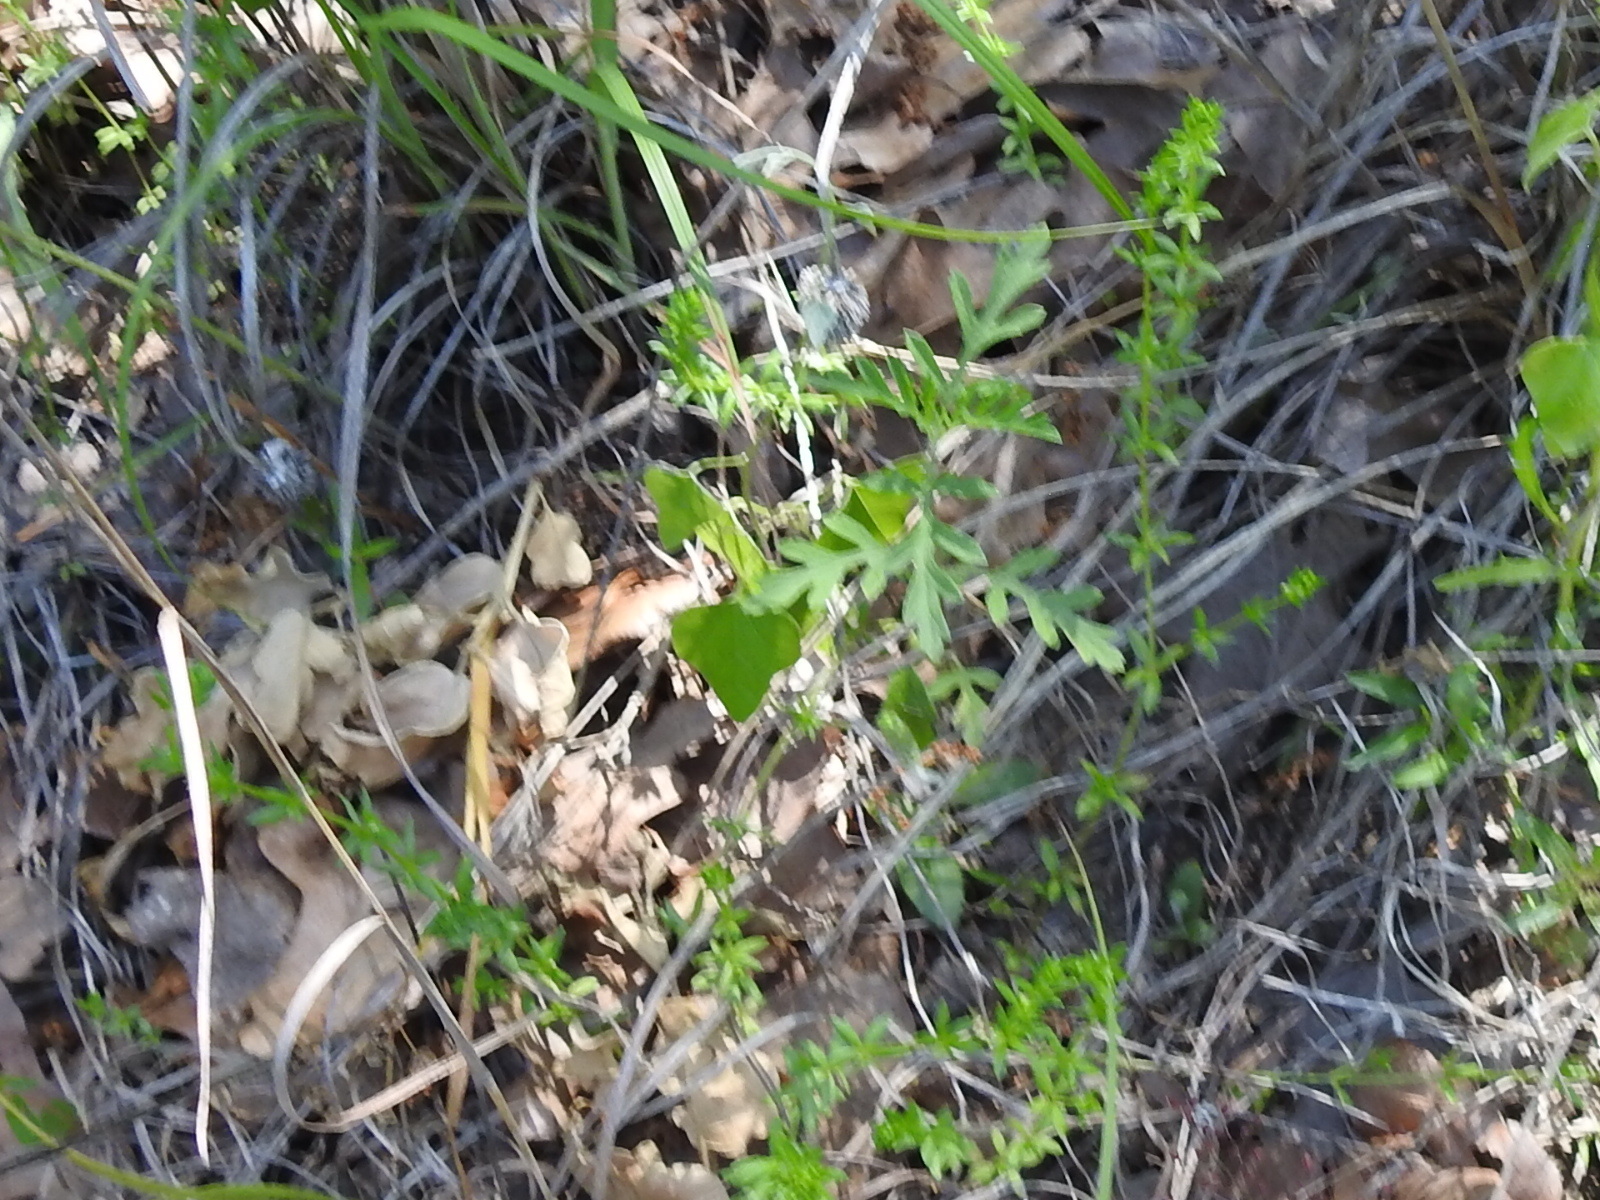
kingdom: Plantae
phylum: Tracheophyta
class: Magnoliopsida
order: Gentianales
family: Rubiaceae
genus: Galium
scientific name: Galium virgatum
